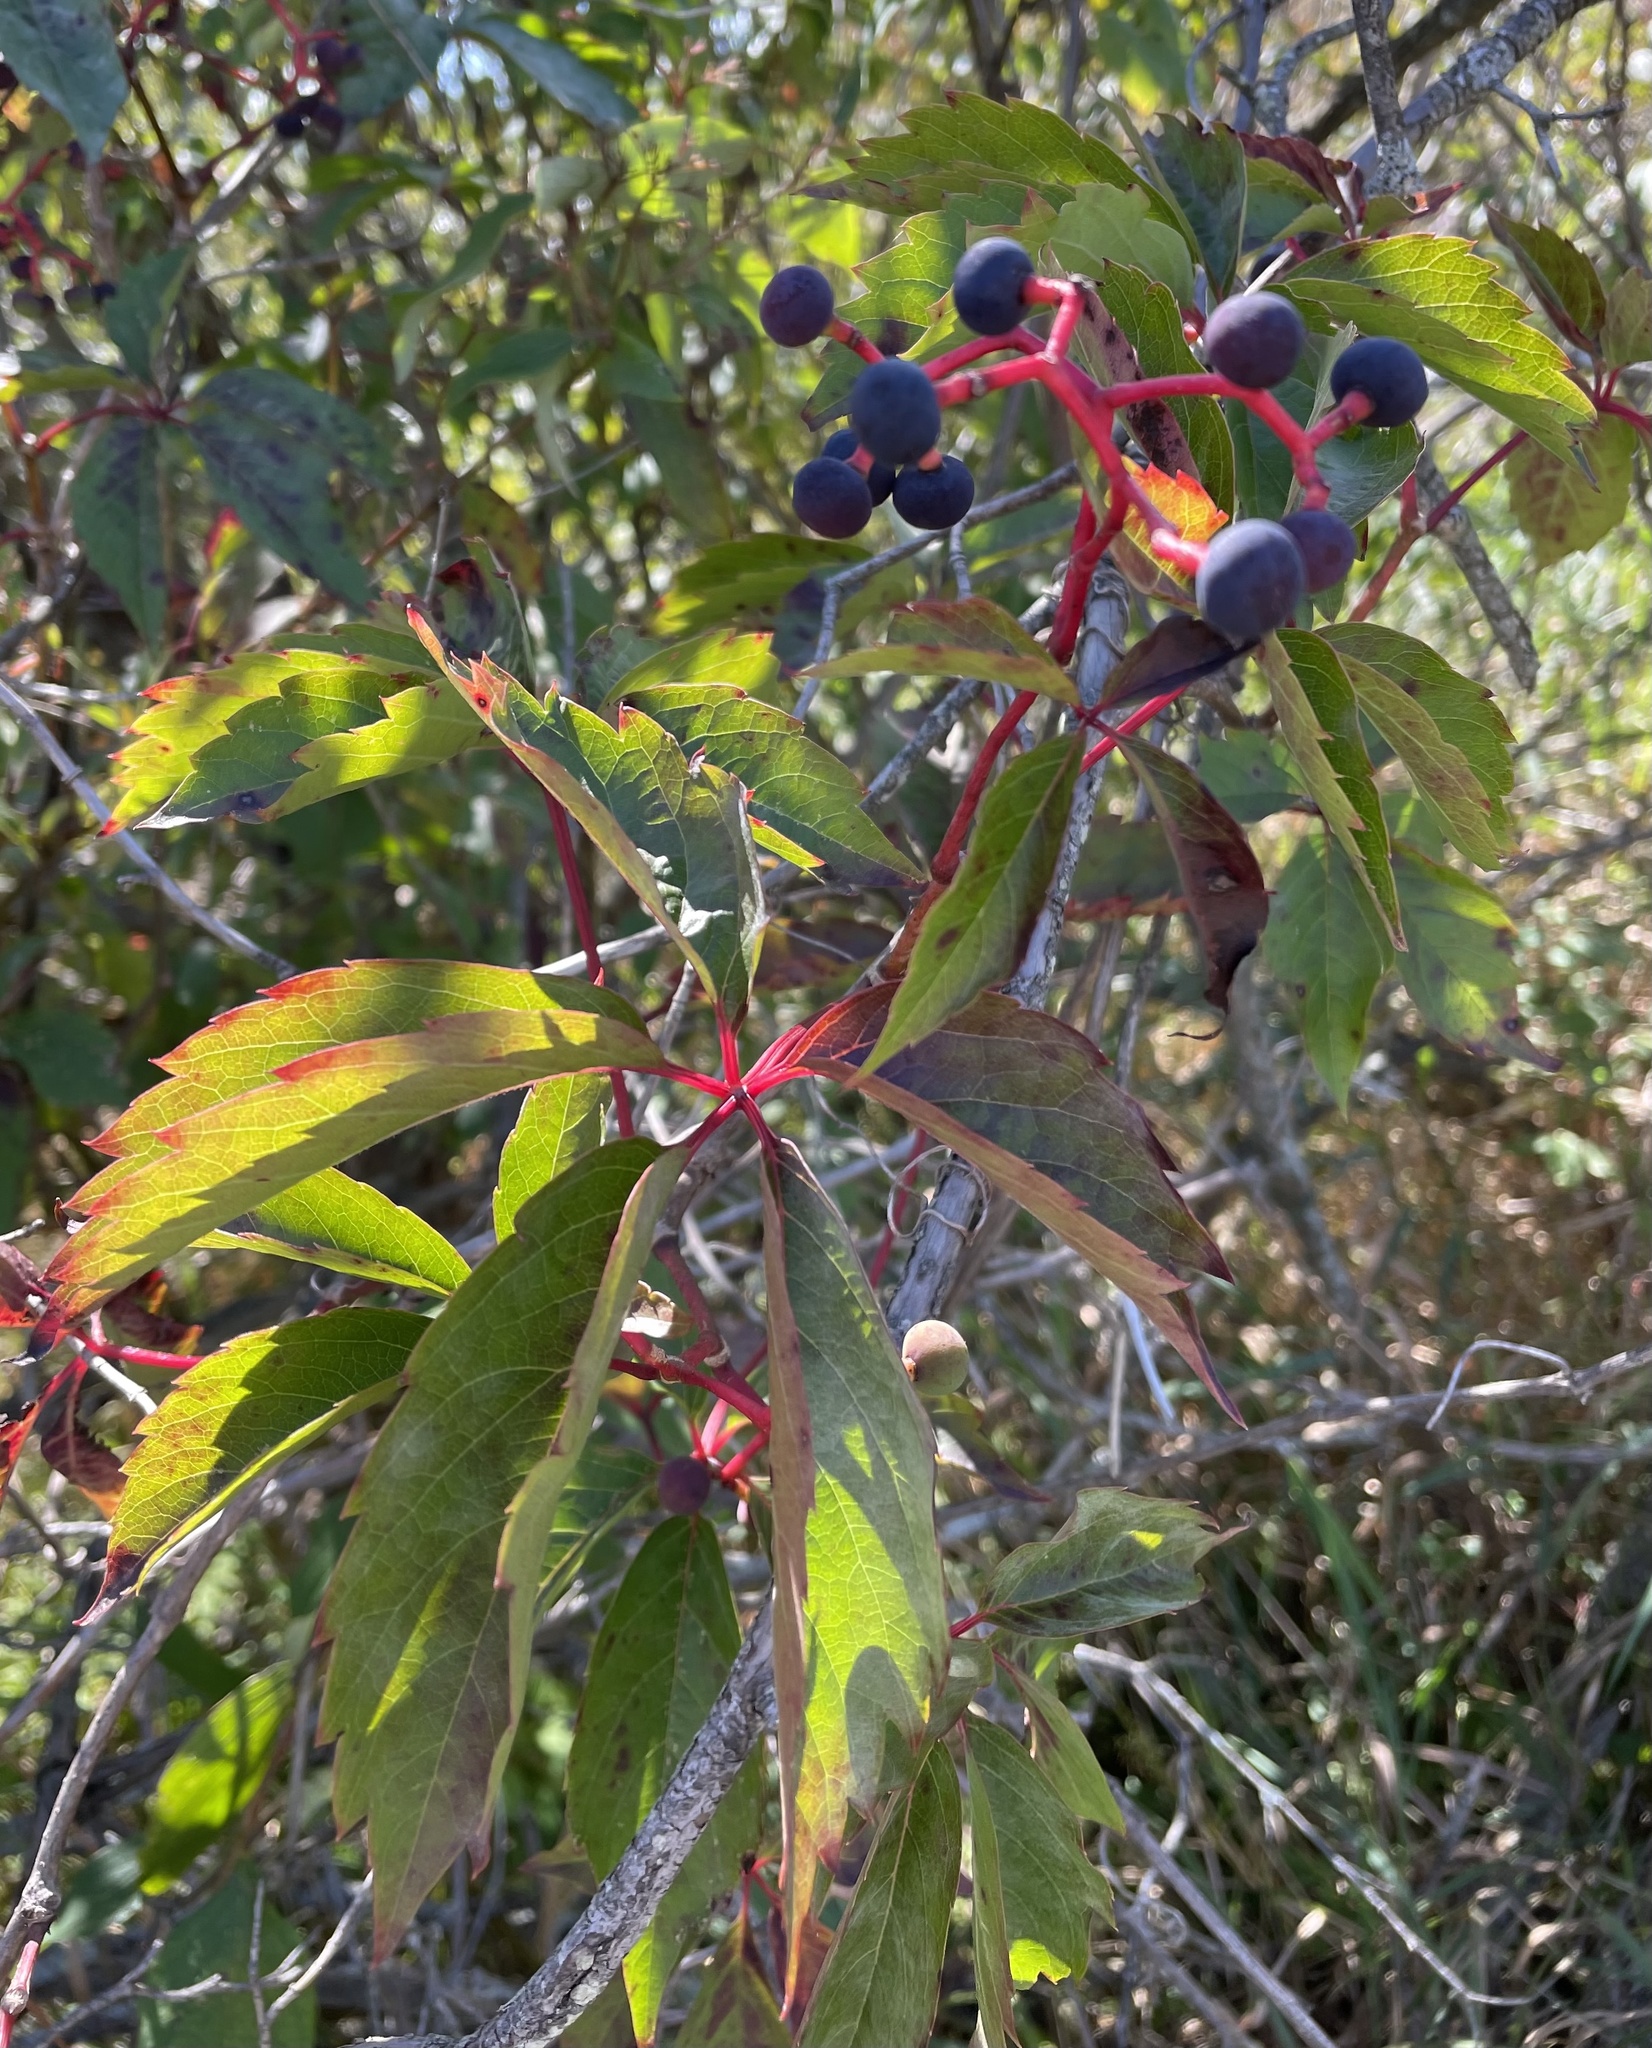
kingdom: Plantae
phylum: Tracheophyta
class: Magnoliopsida
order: Vitales
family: Vitaceae
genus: Parthenocissus
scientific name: Parthenocissus quinquefolia
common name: Virginia-creeper
